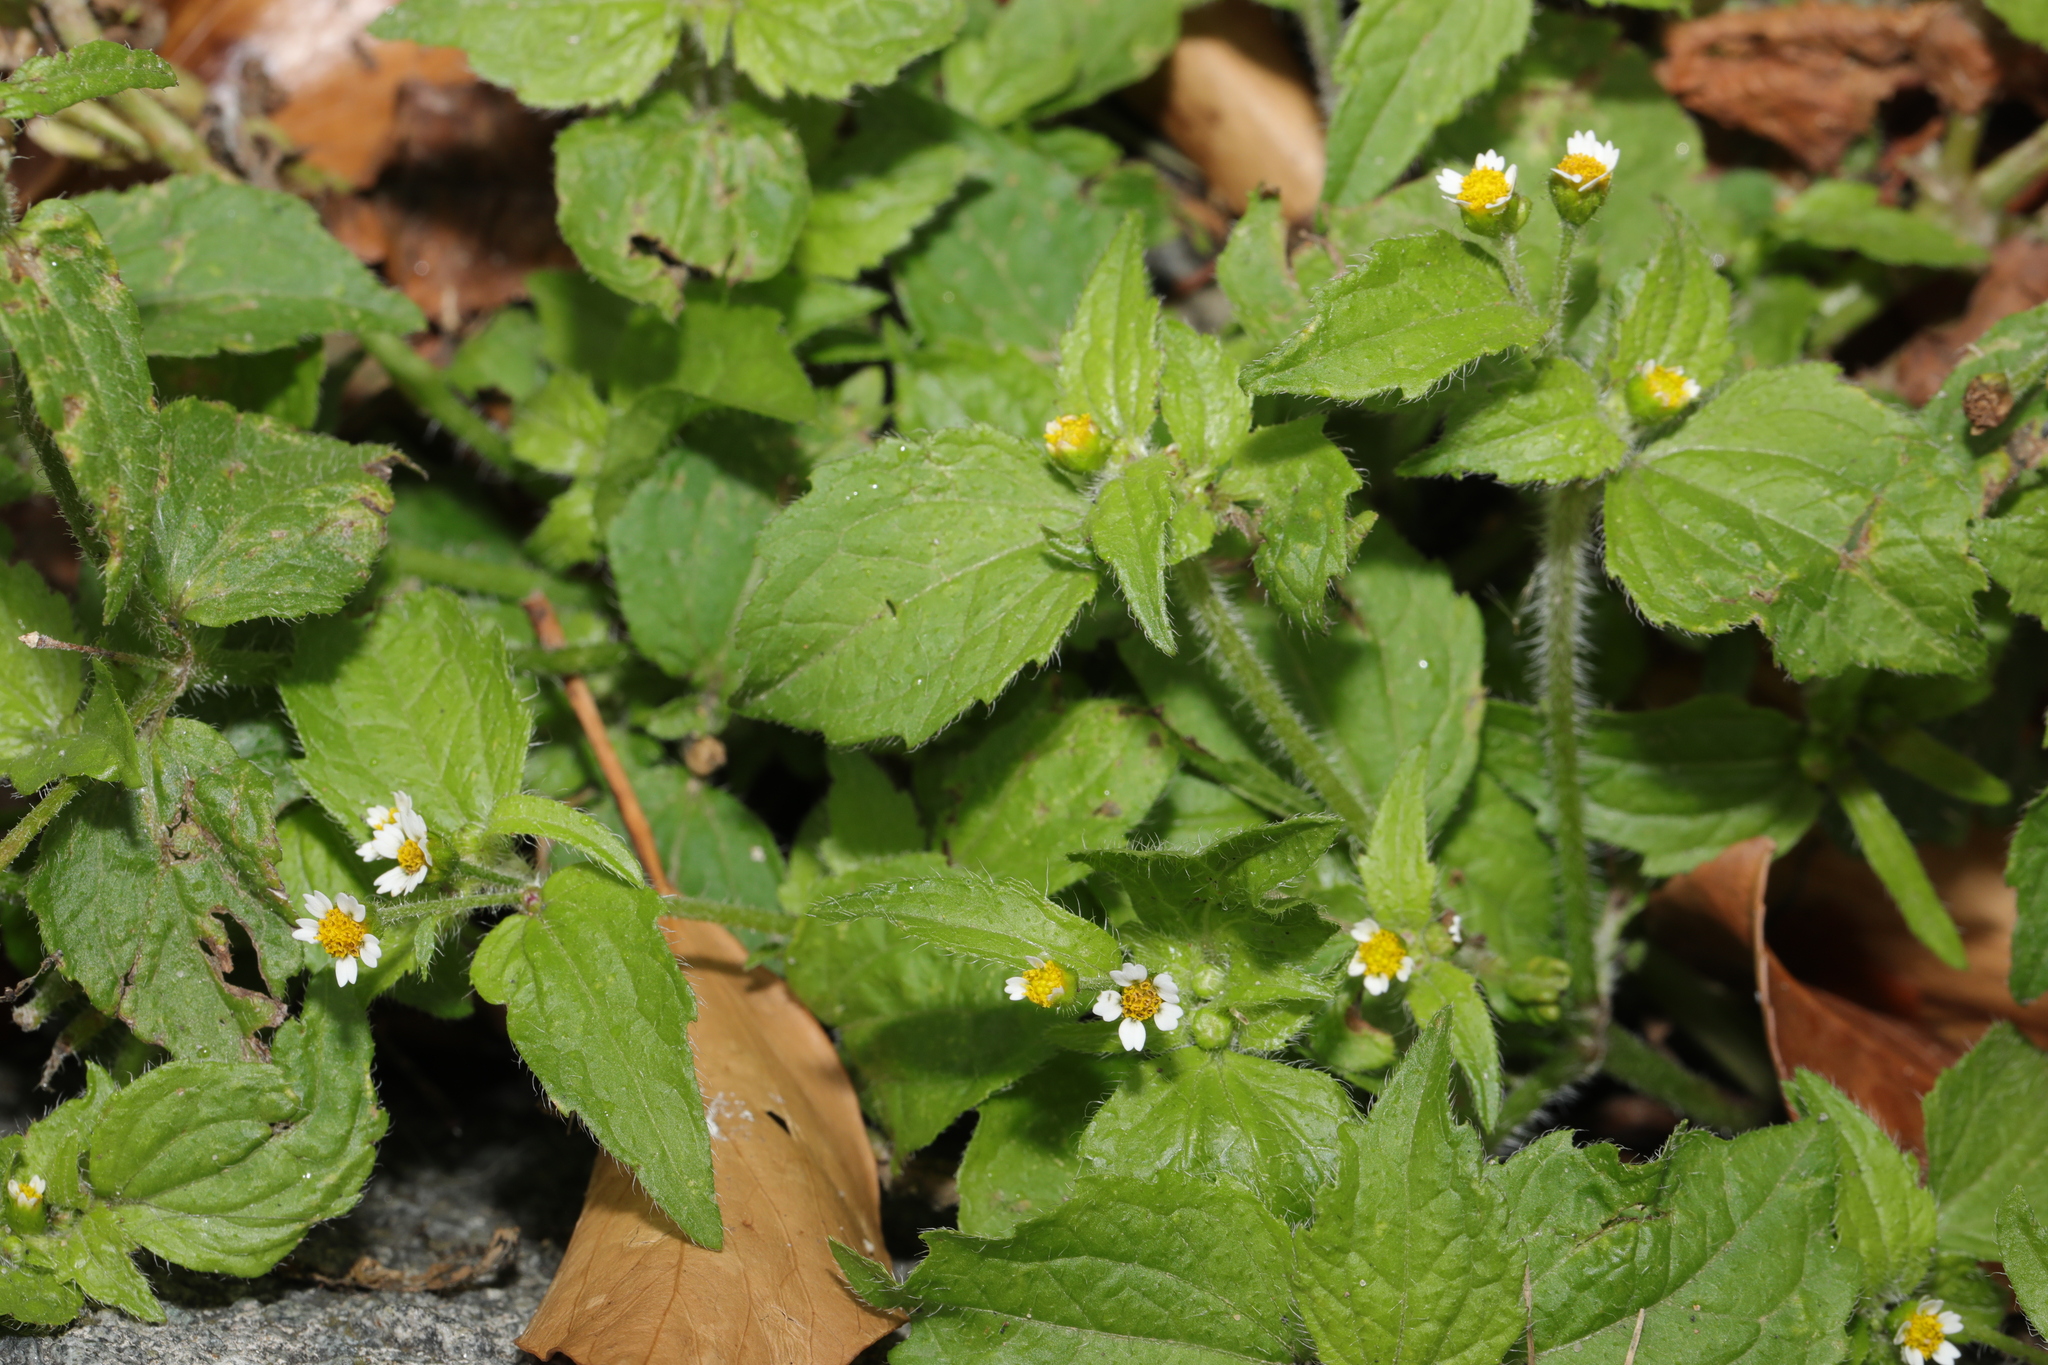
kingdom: Plantae
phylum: Tracheophyta
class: Magnoliopsida
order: Asterales
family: Asteraceae
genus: Galinsoga
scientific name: Galinsoga quadriradiata
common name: Shaggy soldier
